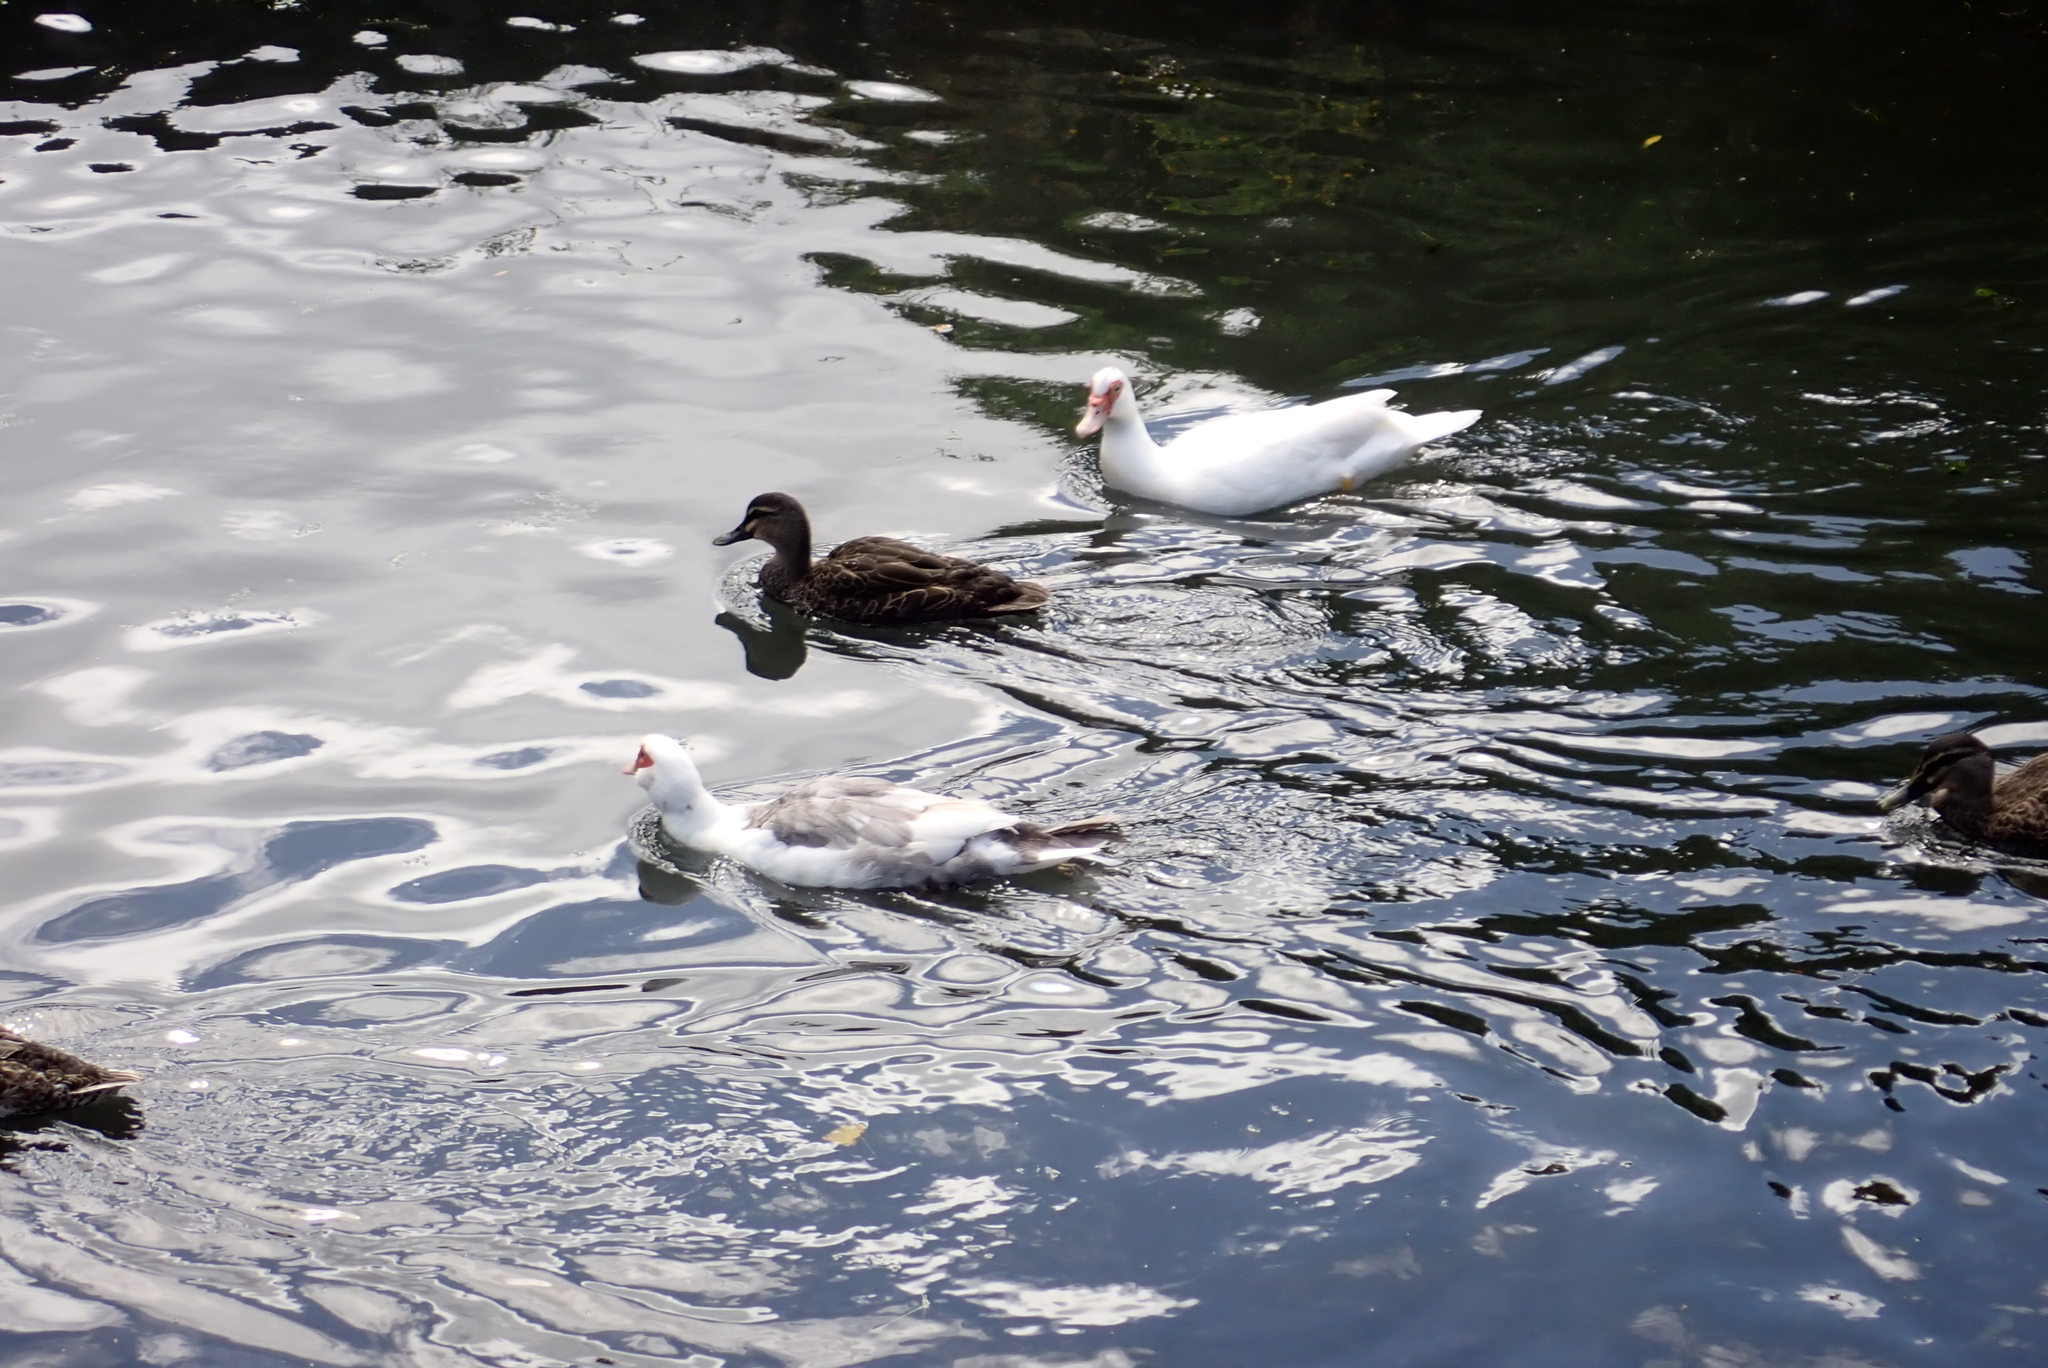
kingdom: Animalia
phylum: Chordata
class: Aves
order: Anseriformes
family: Anatidae
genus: Cairina
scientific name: Cairina moschata
